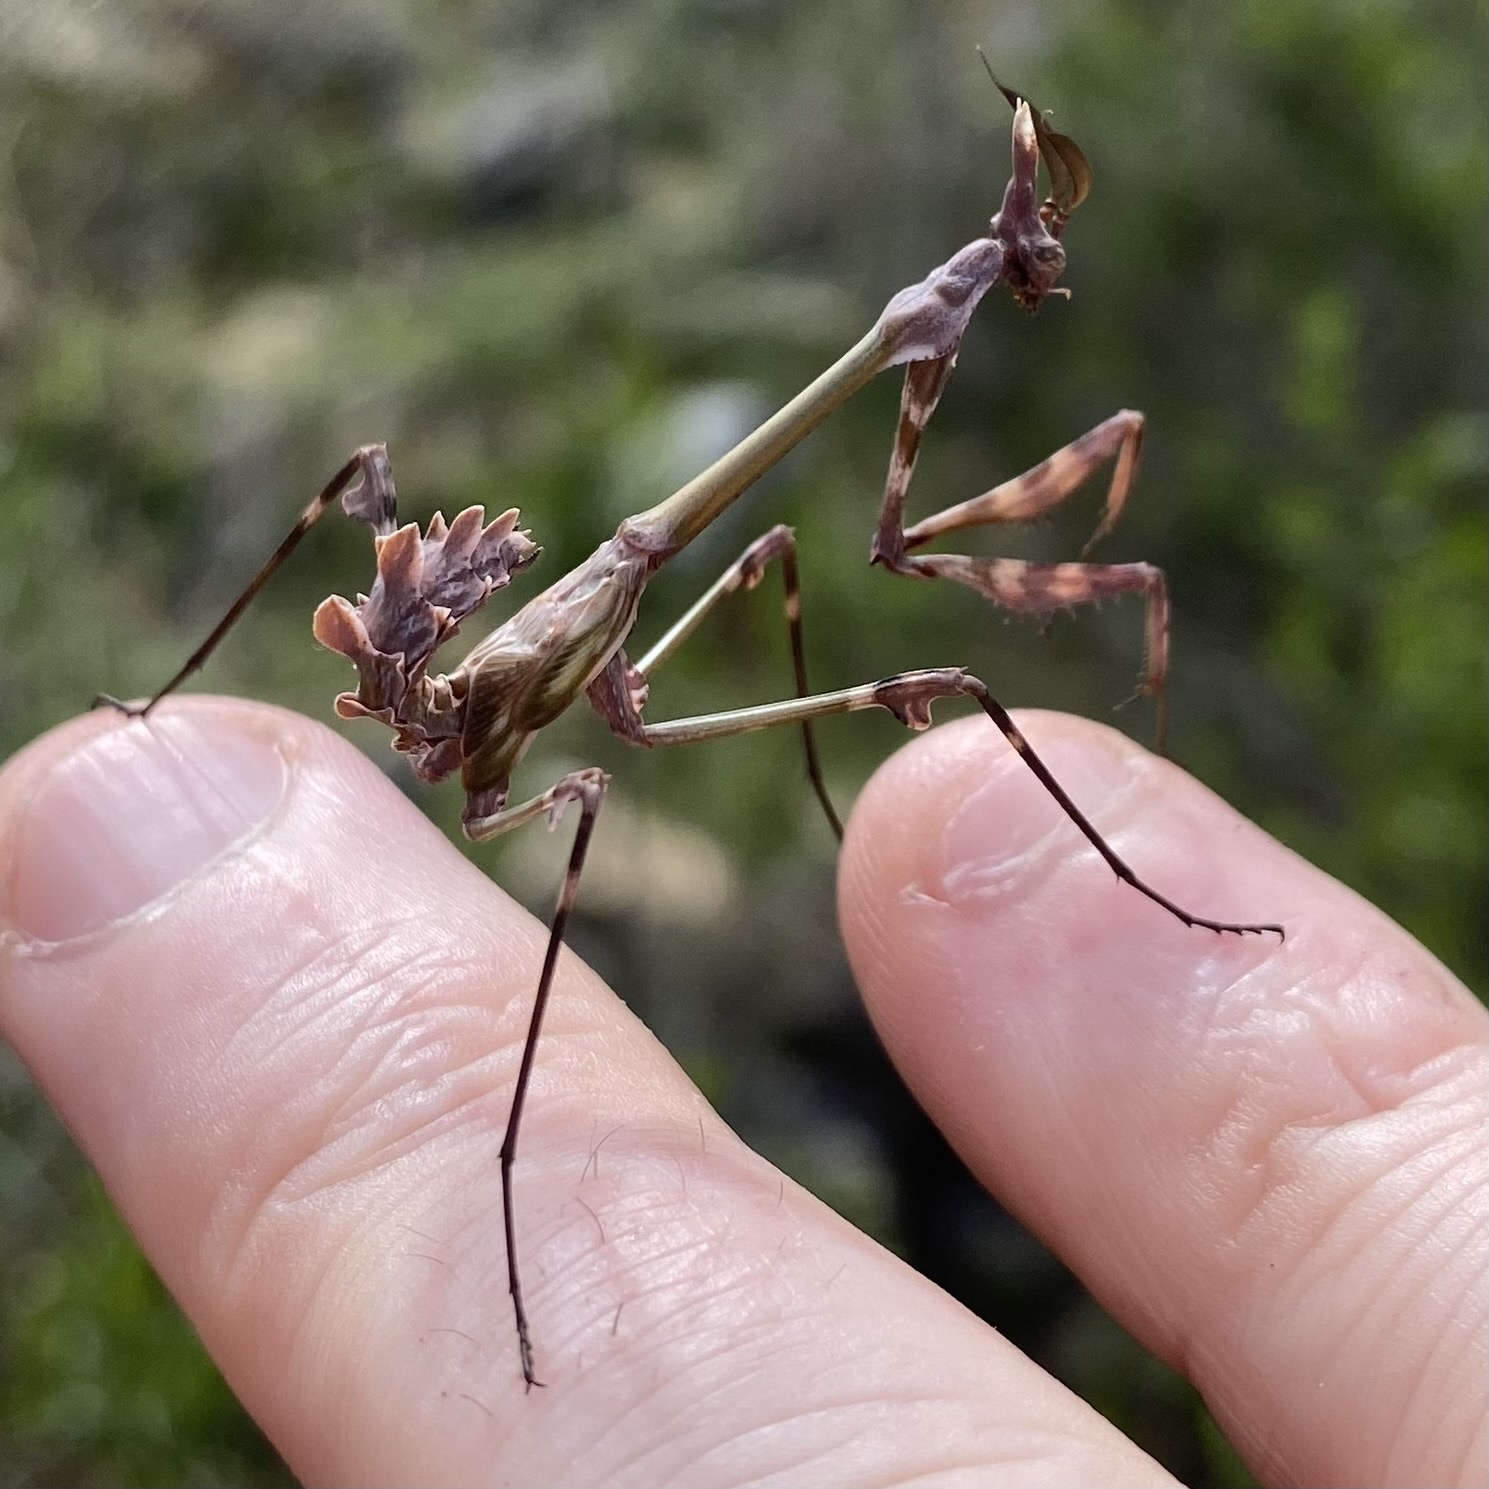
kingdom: Animalia
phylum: Arthropoda
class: Insecta
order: Mantodea
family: Empusidae
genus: Empusa
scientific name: Empusa fasciata
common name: Devil's mare
